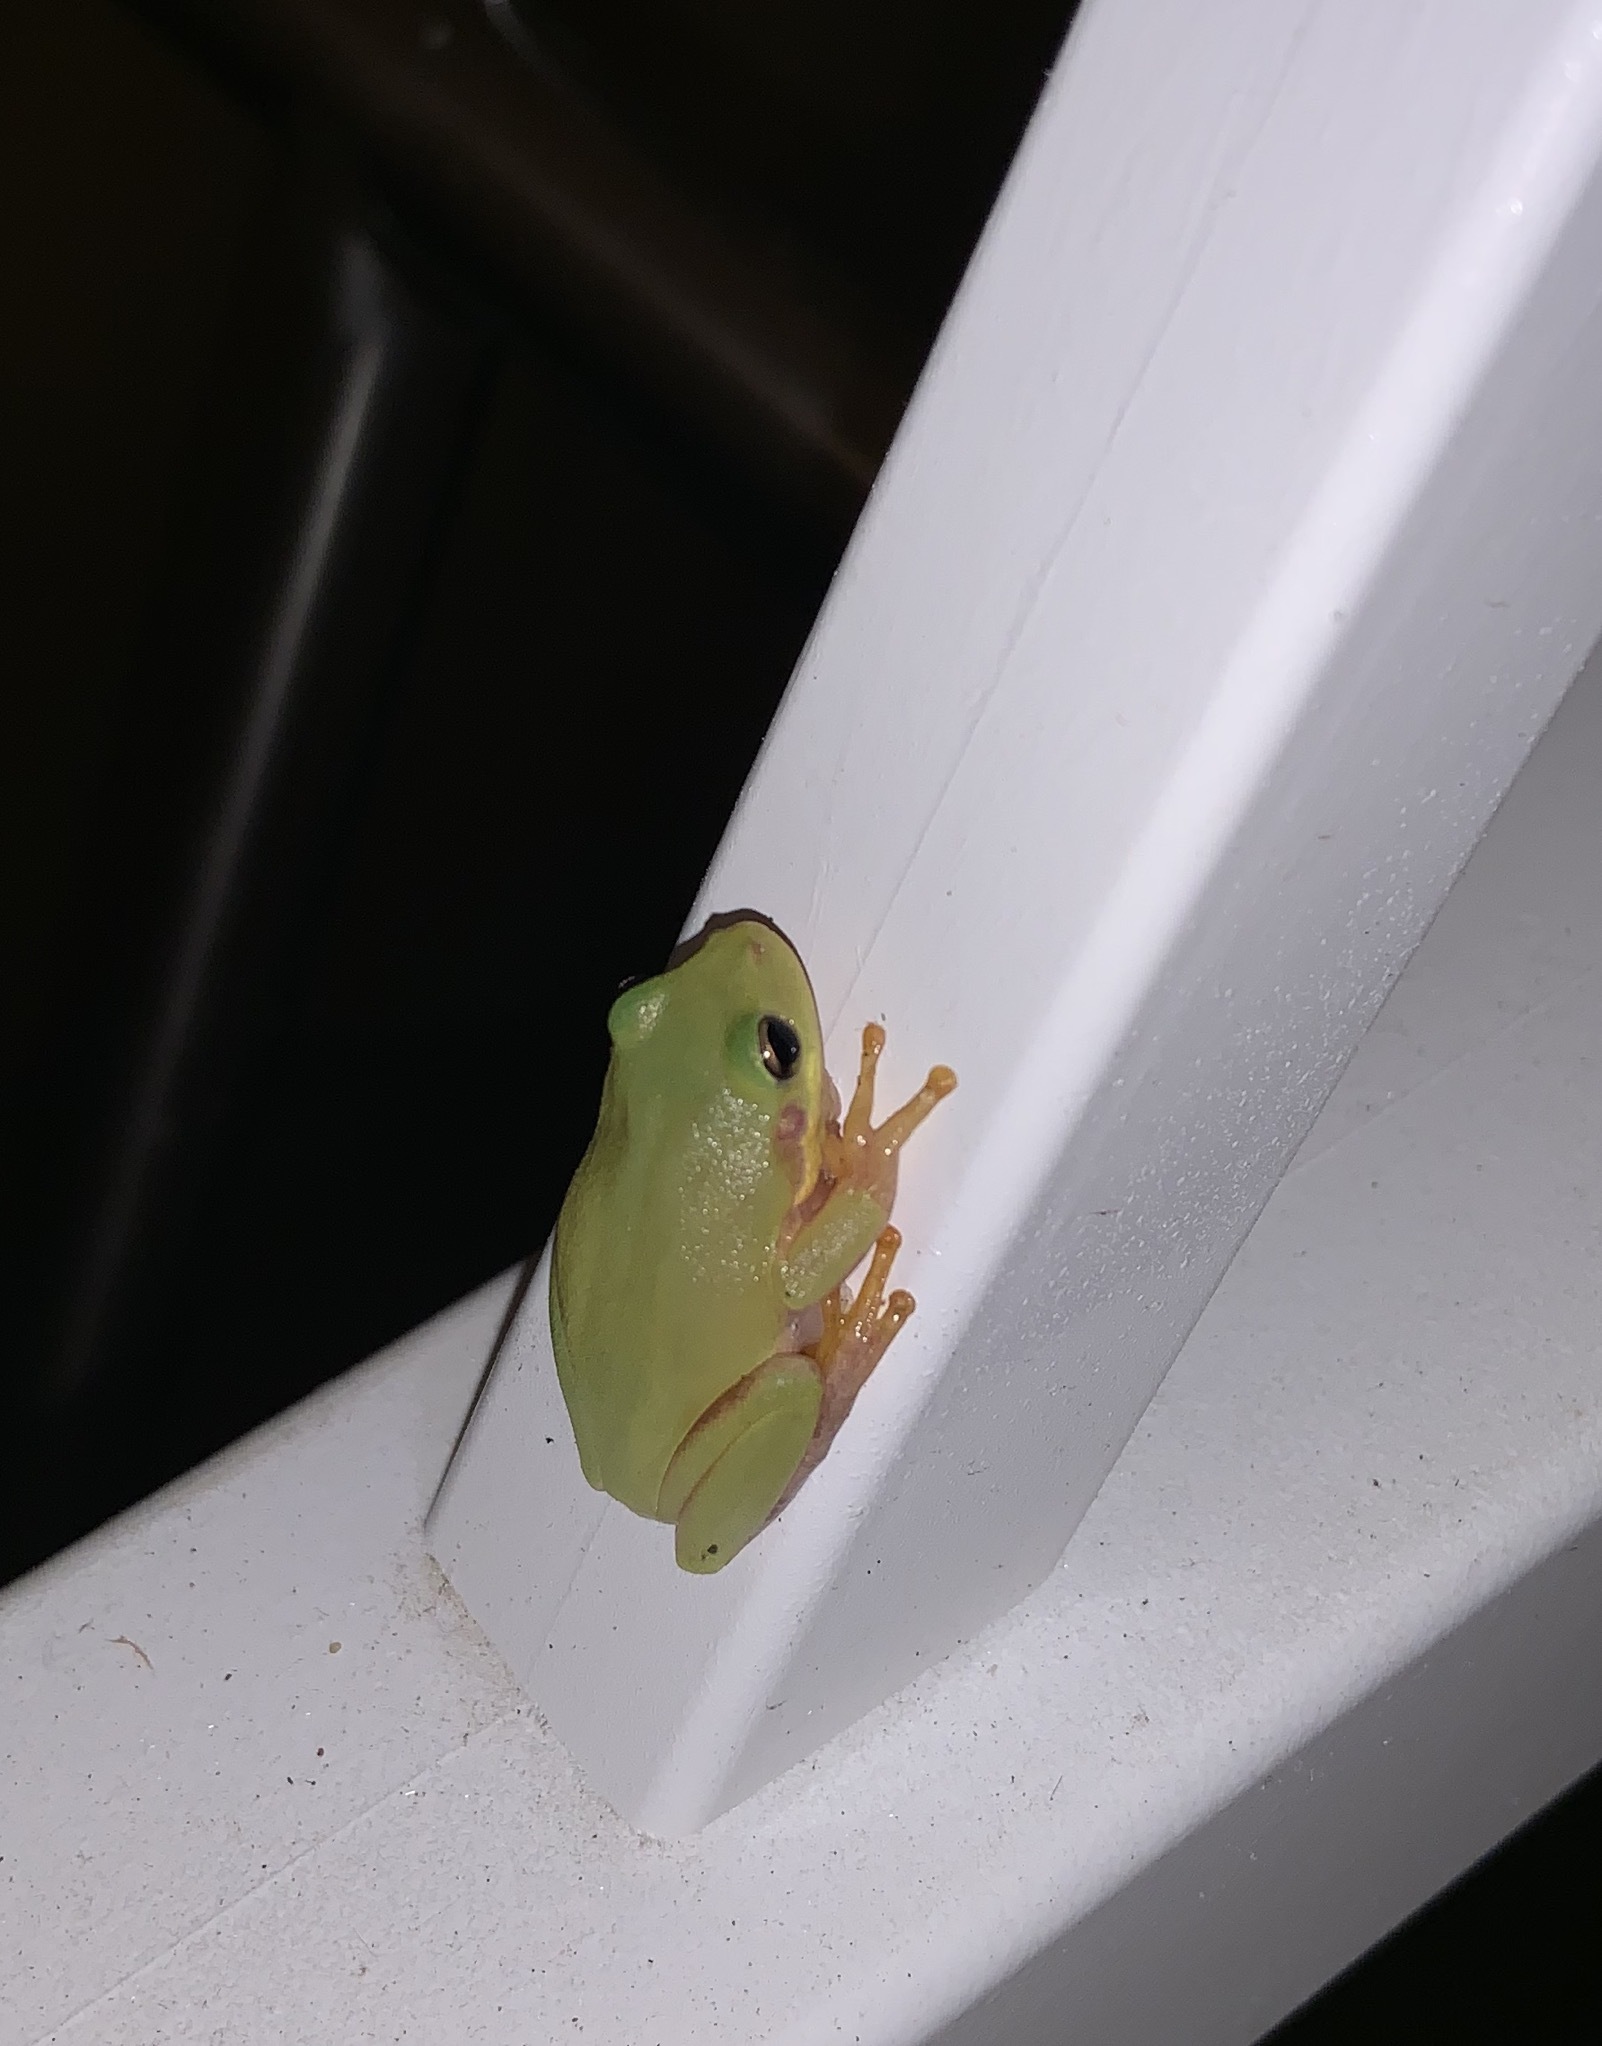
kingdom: Animalia
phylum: Chordata
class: Amphibia
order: Anura
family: Hylidae
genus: Dryophytes
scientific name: Dryophytes squirellus
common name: Squirrel treefrog
